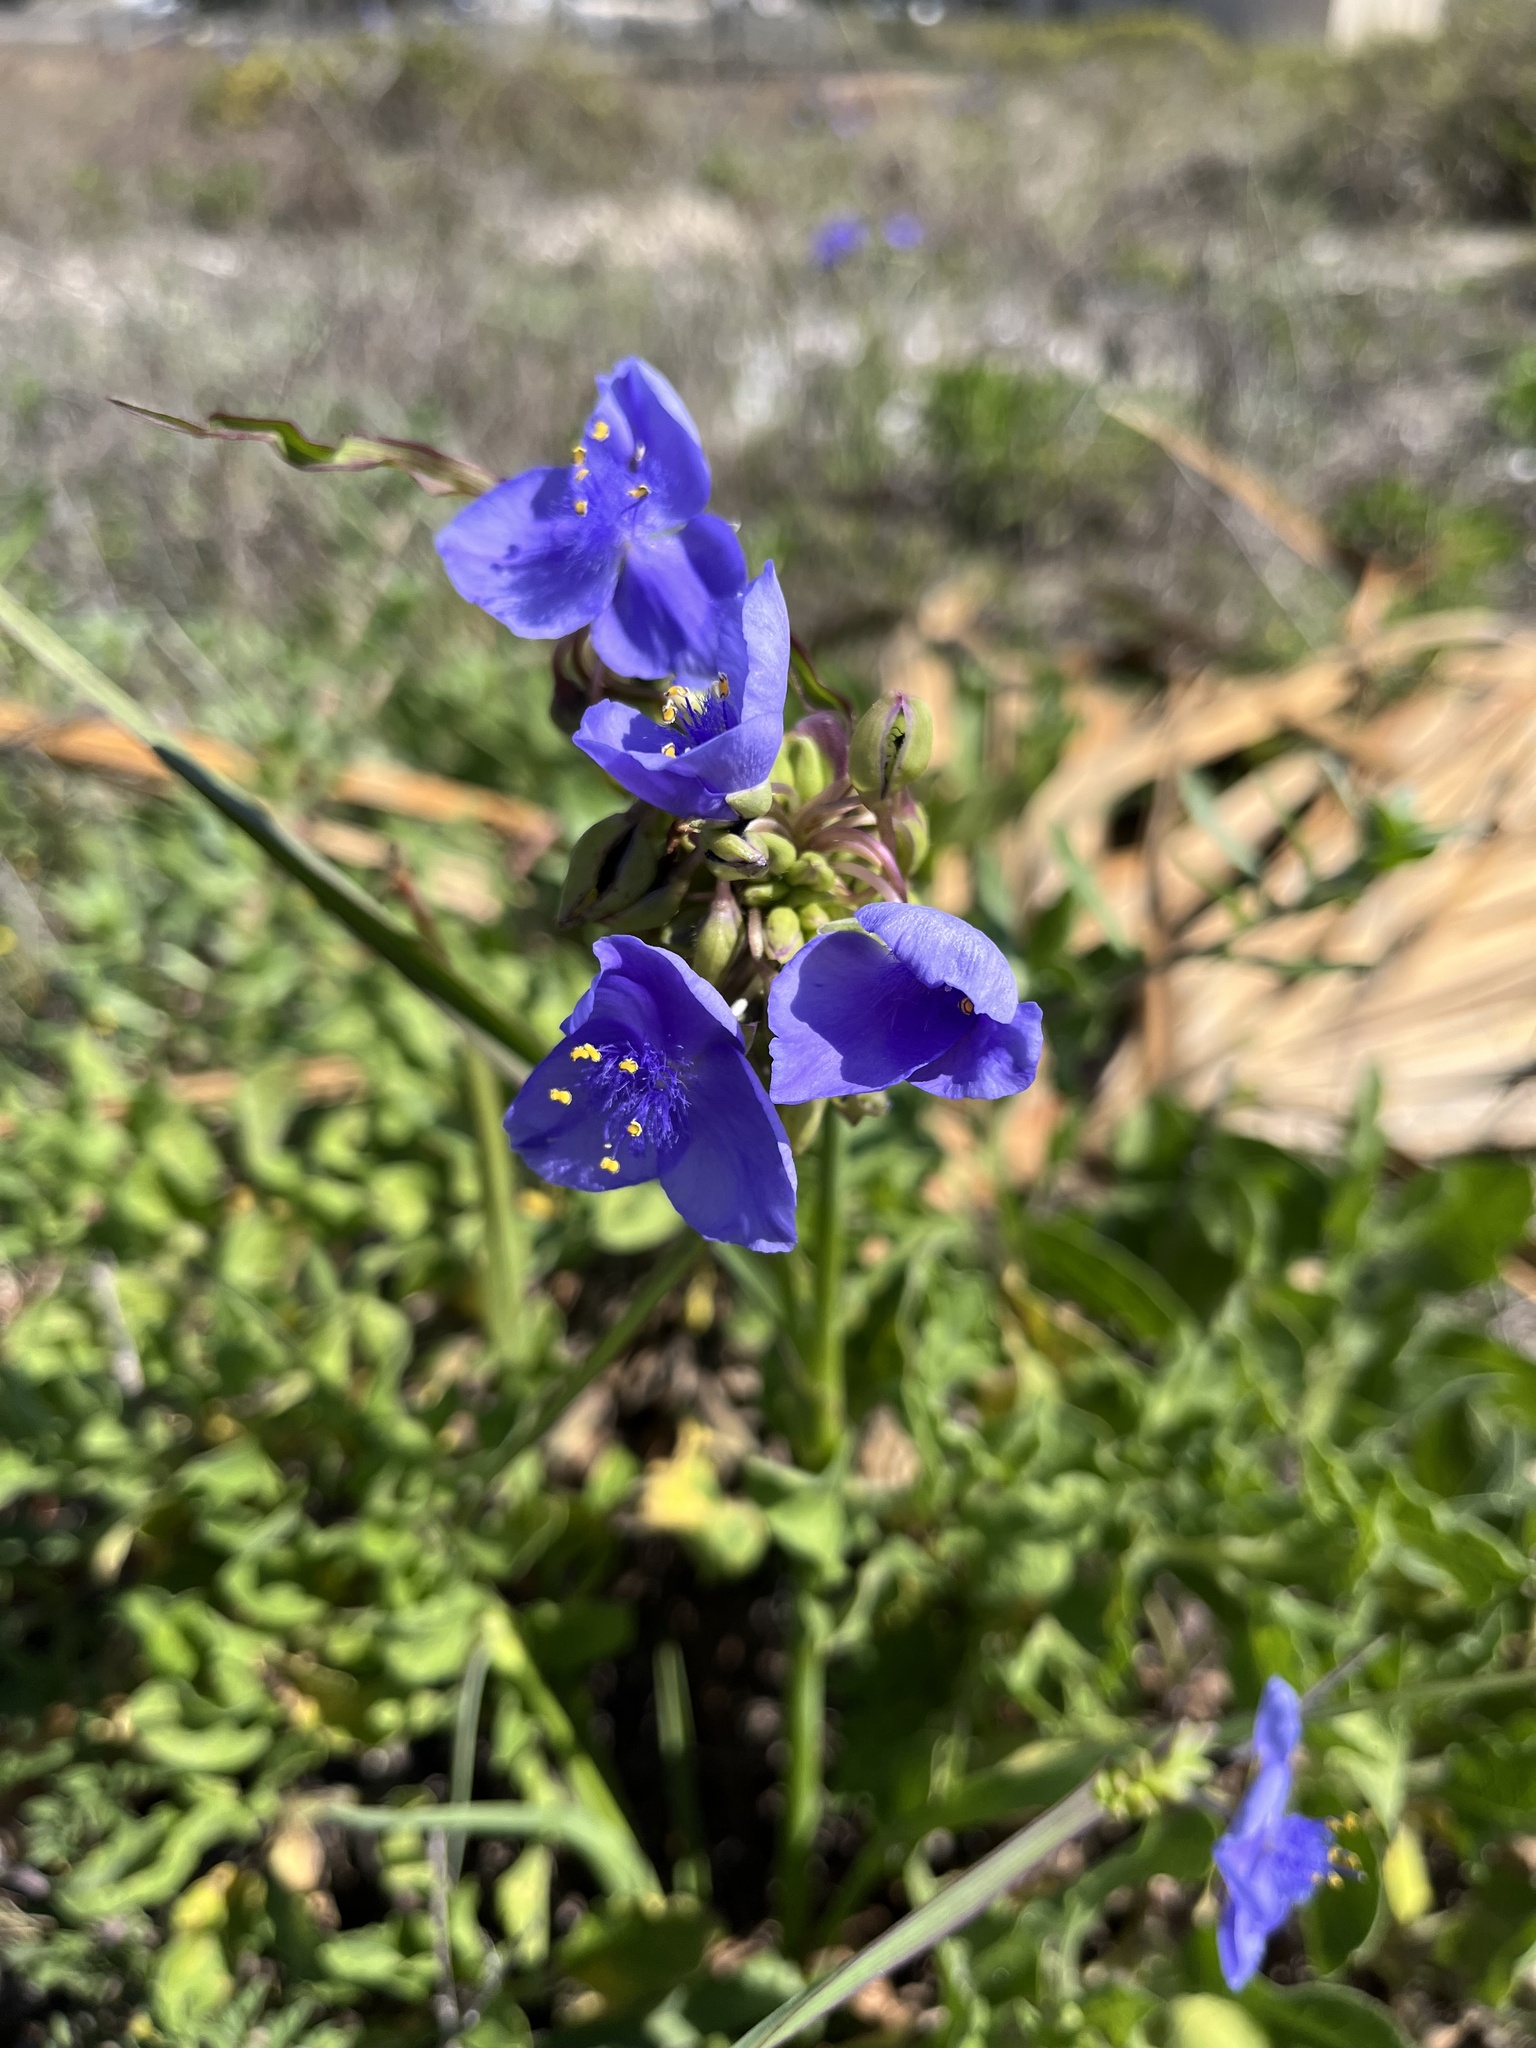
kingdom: Plantae
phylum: Tracheophyta
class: Liliopsida
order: Commelinales
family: Commelinaceae
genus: Tradescantia
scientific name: Tradescantia ohiensis
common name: Ohio spiderwort
